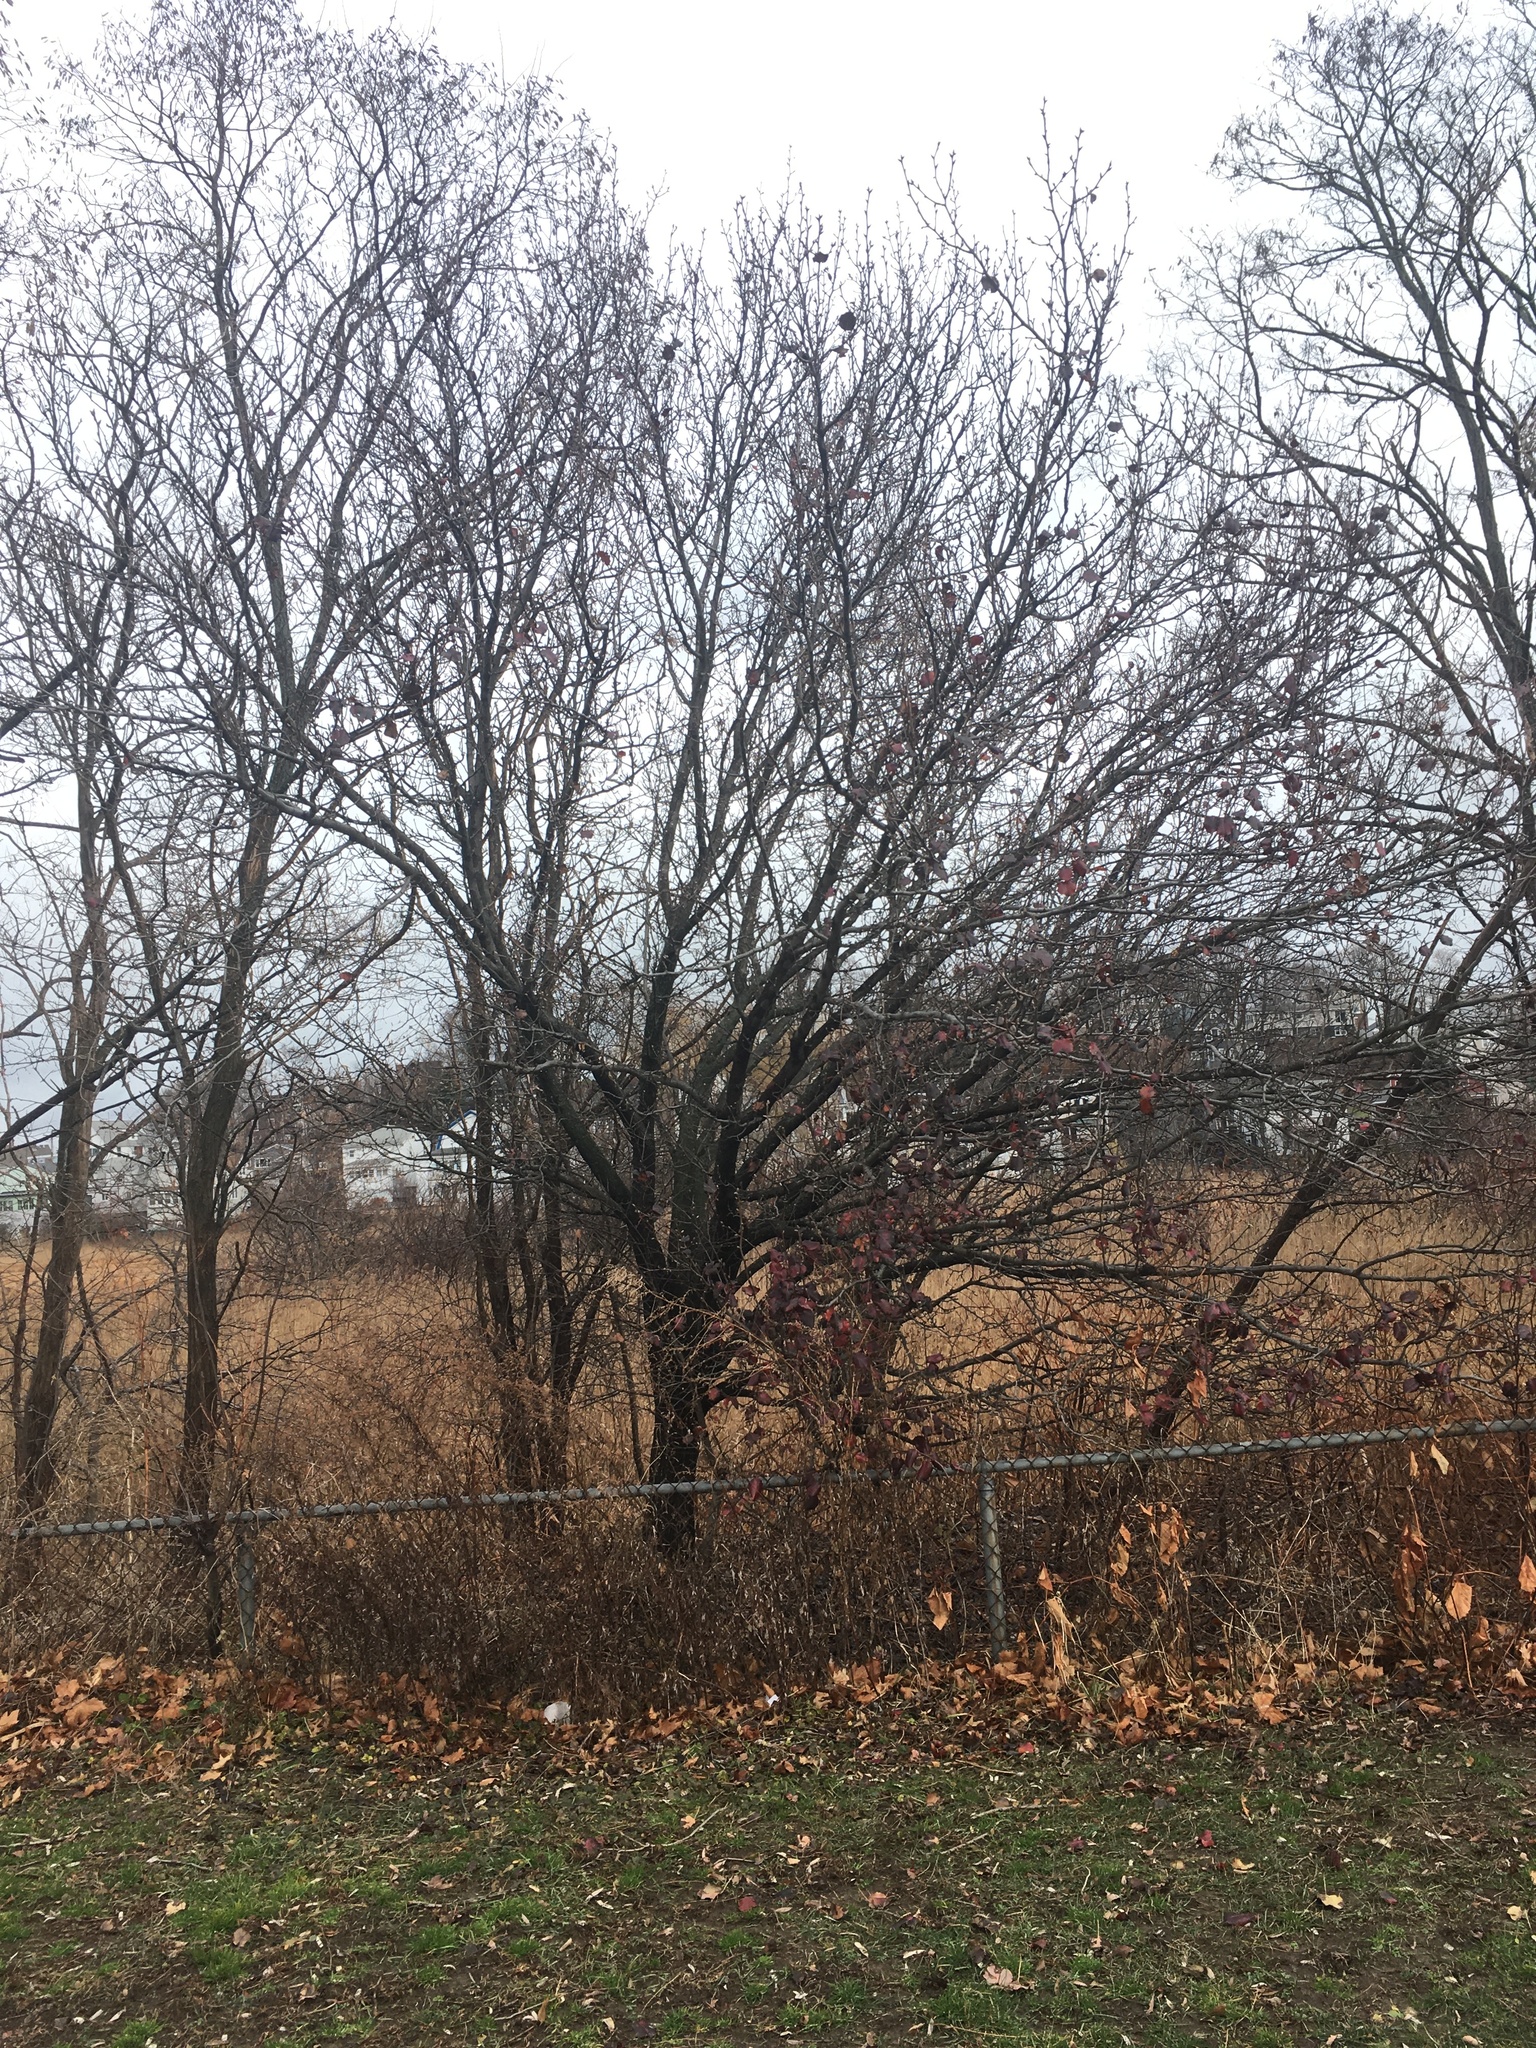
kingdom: Plantae
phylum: Tracheophyta
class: Magnoliopsida
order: Rosales
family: Rosaceae
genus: Pyrus
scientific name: Pyrus calleryana
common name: Callery pear
